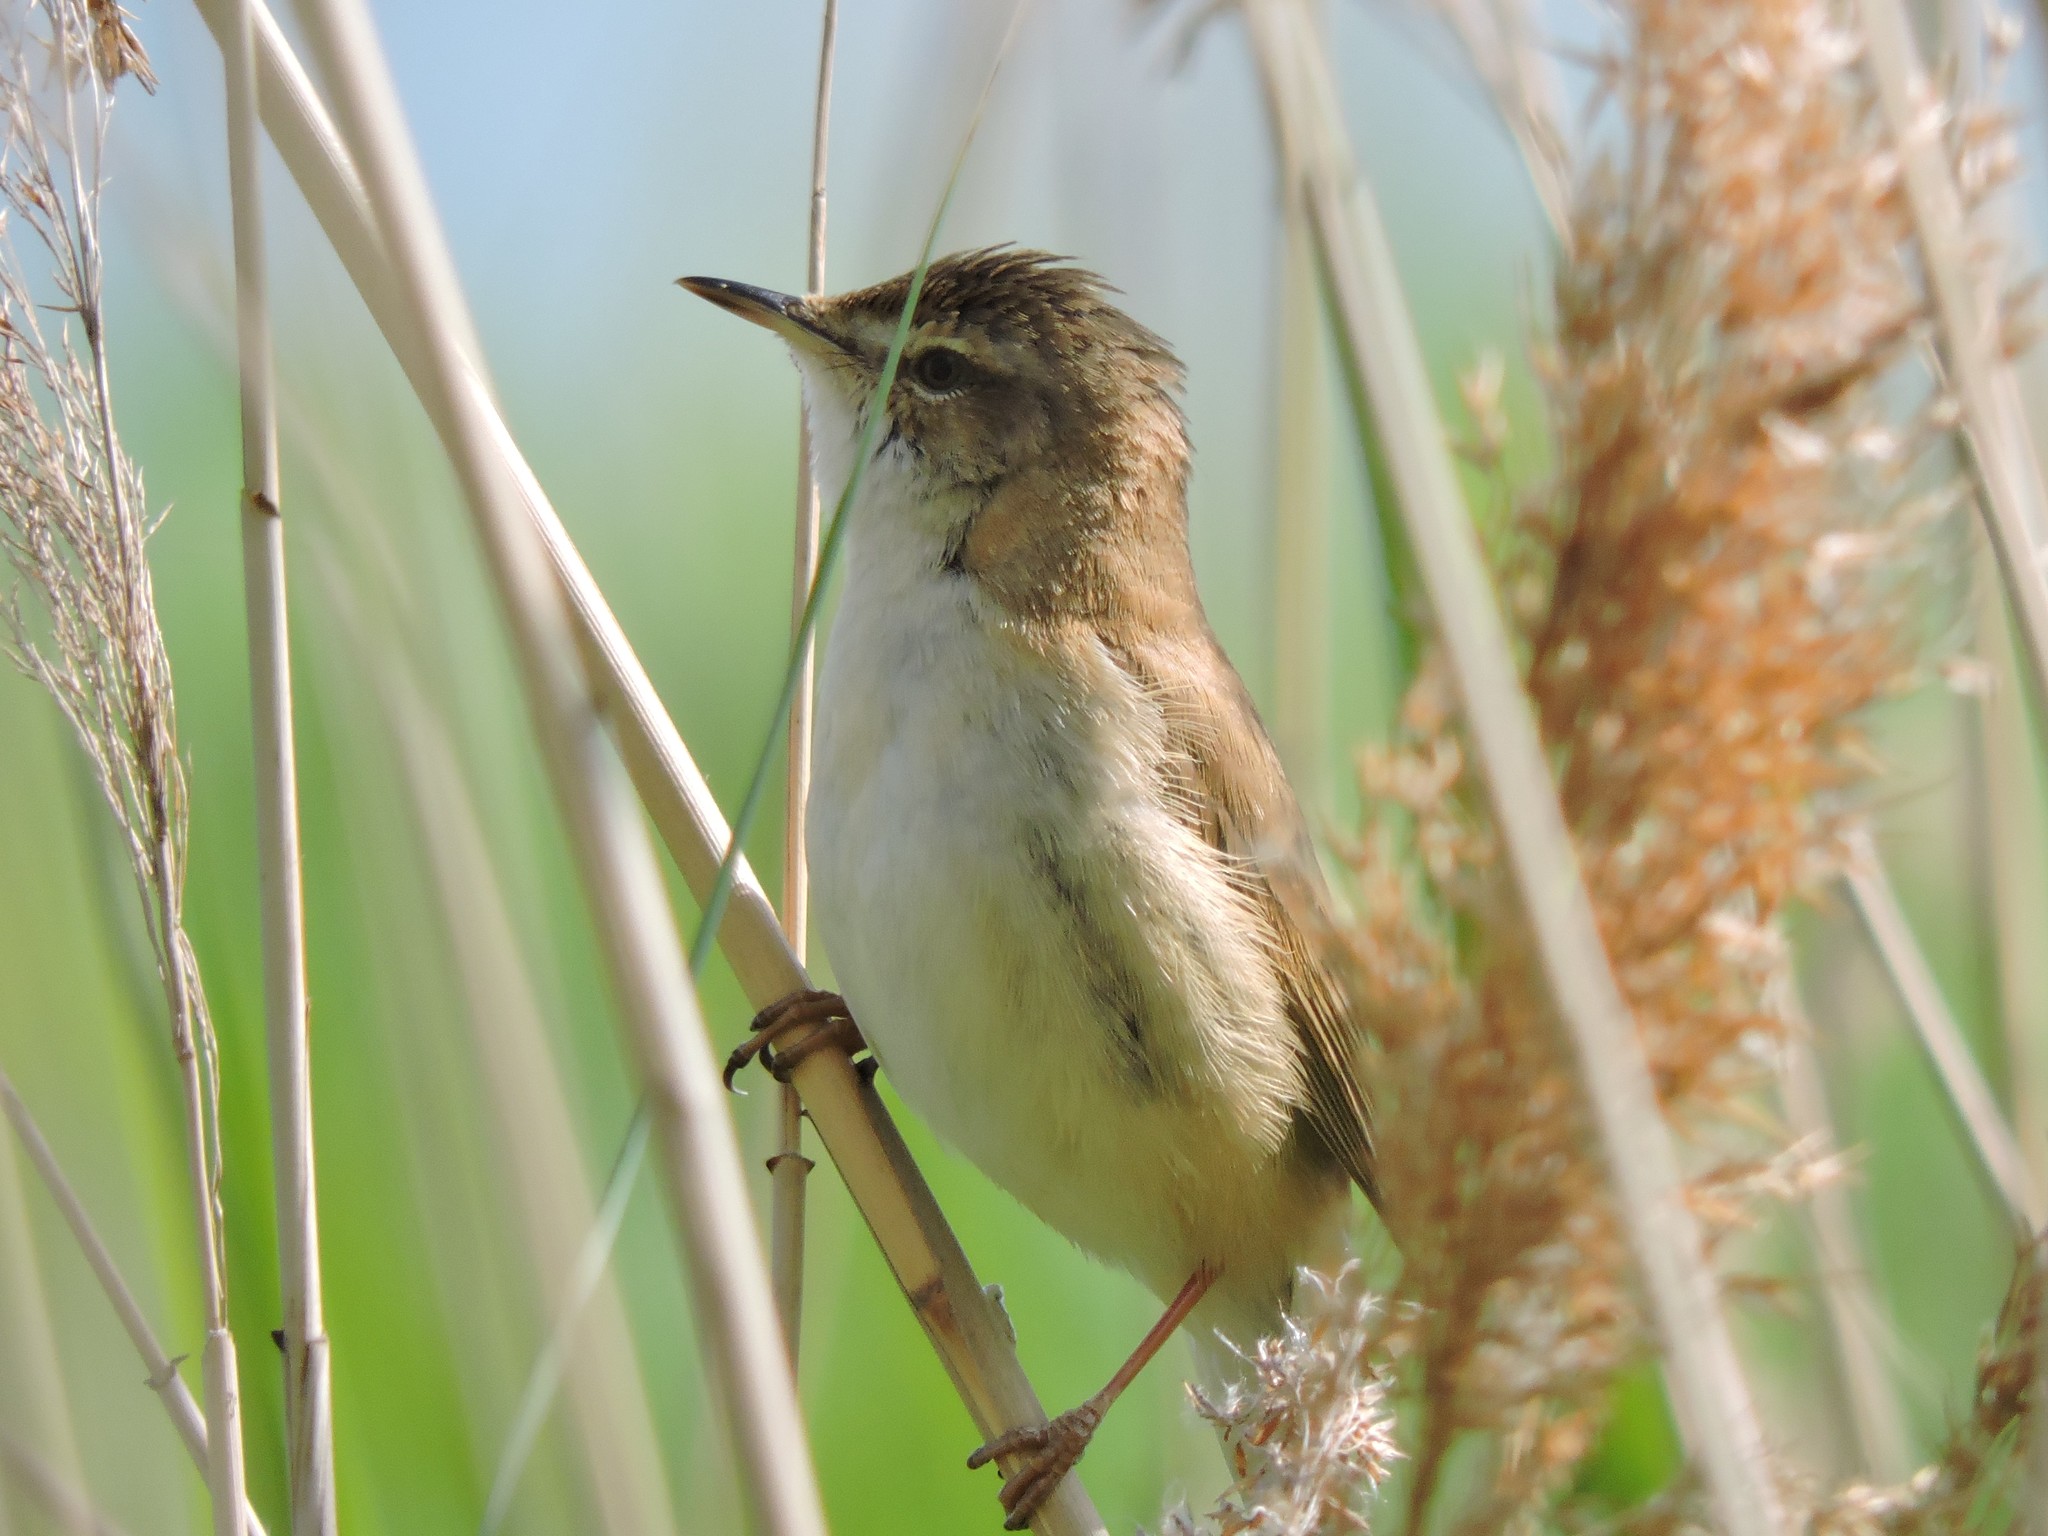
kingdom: Animalia
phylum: Chordata
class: Aves
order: Passeriformes
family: Acrocephalidae
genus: Acrocephalus
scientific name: Acrocephalus agricola
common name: Paddyfield warbler
